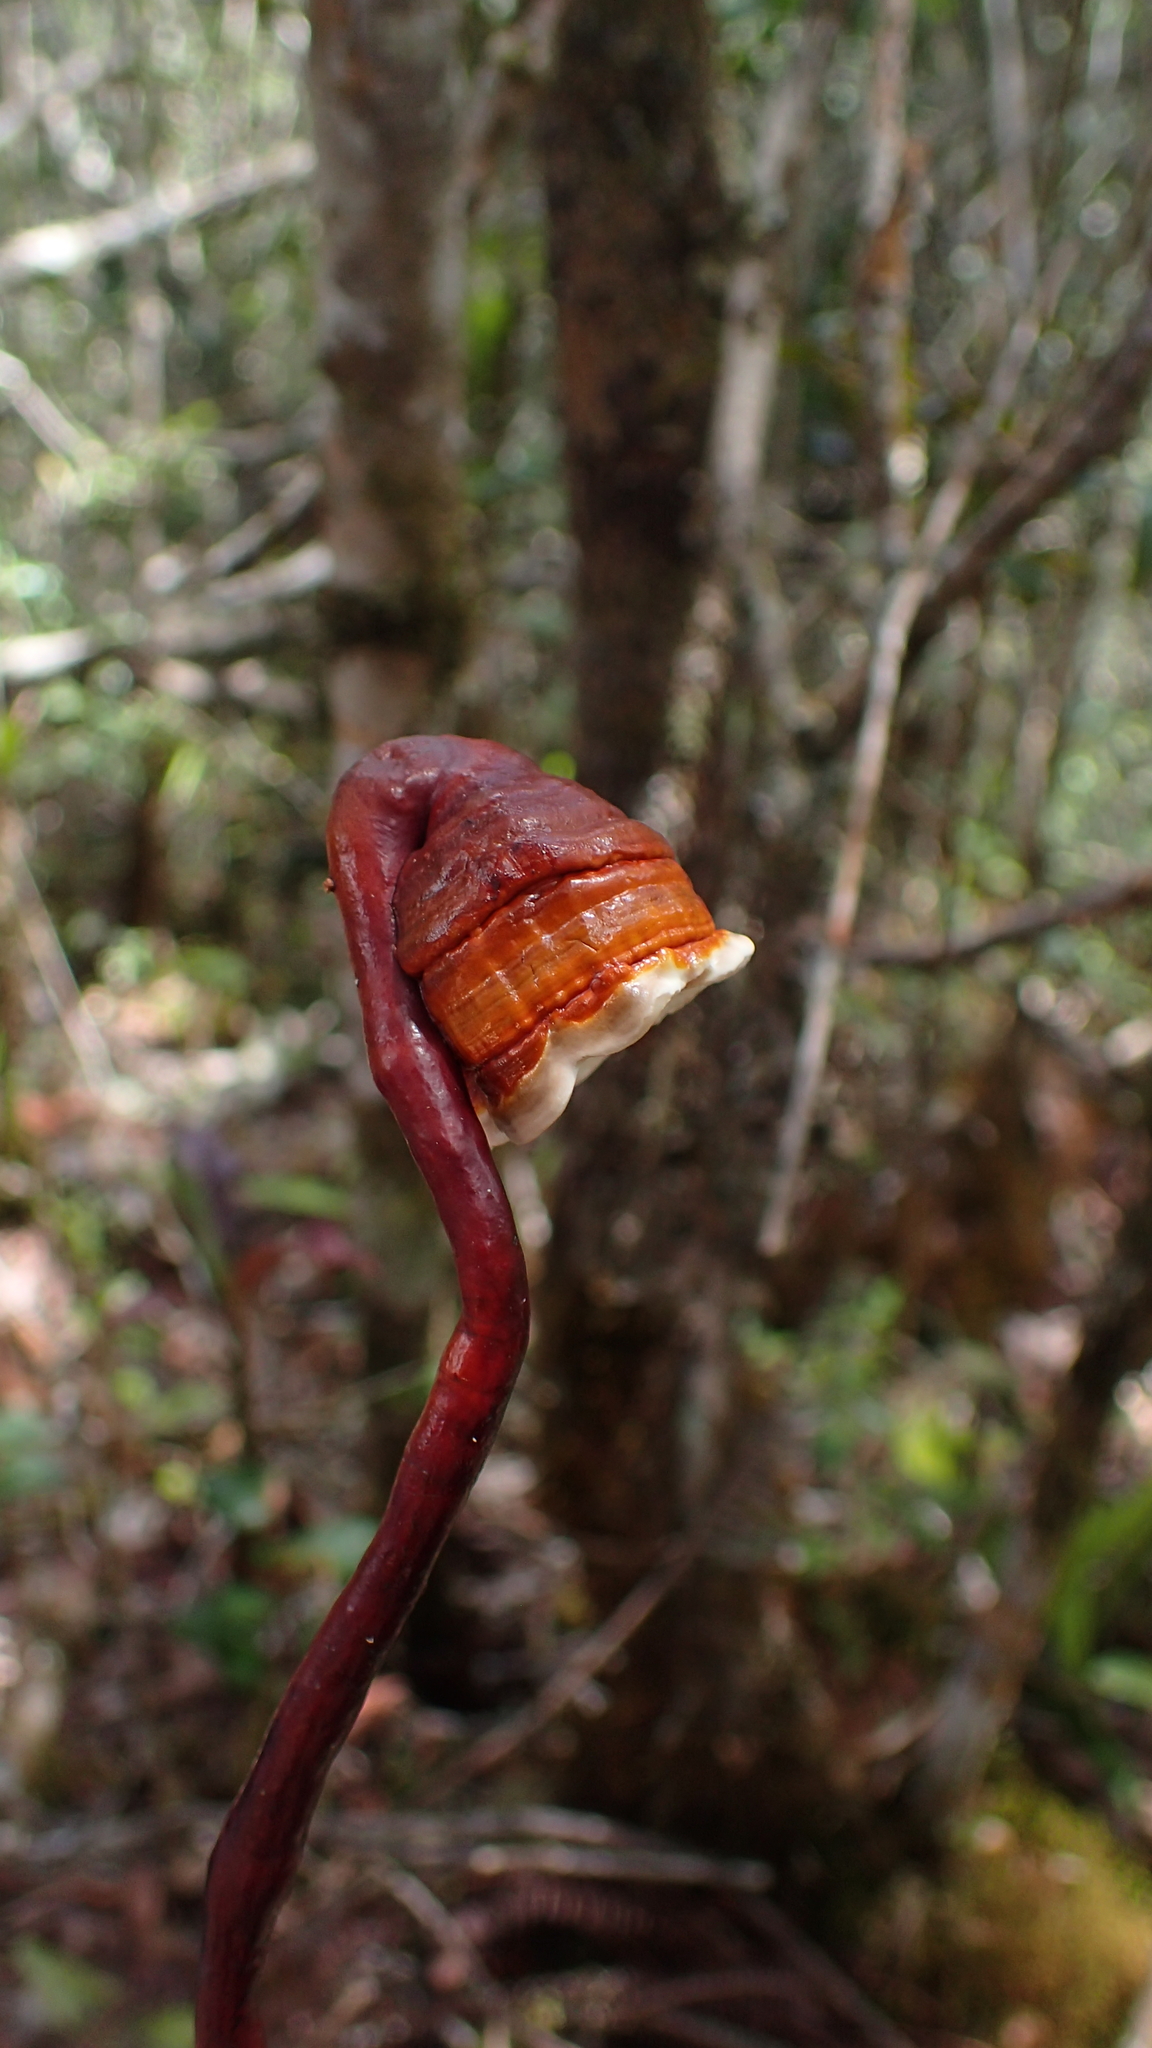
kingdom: Fungi
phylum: Basidiomycota
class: Agaricomycetes
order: Polyporales
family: Polyporaceae
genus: Haddowia
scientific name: Haddowia longipes
